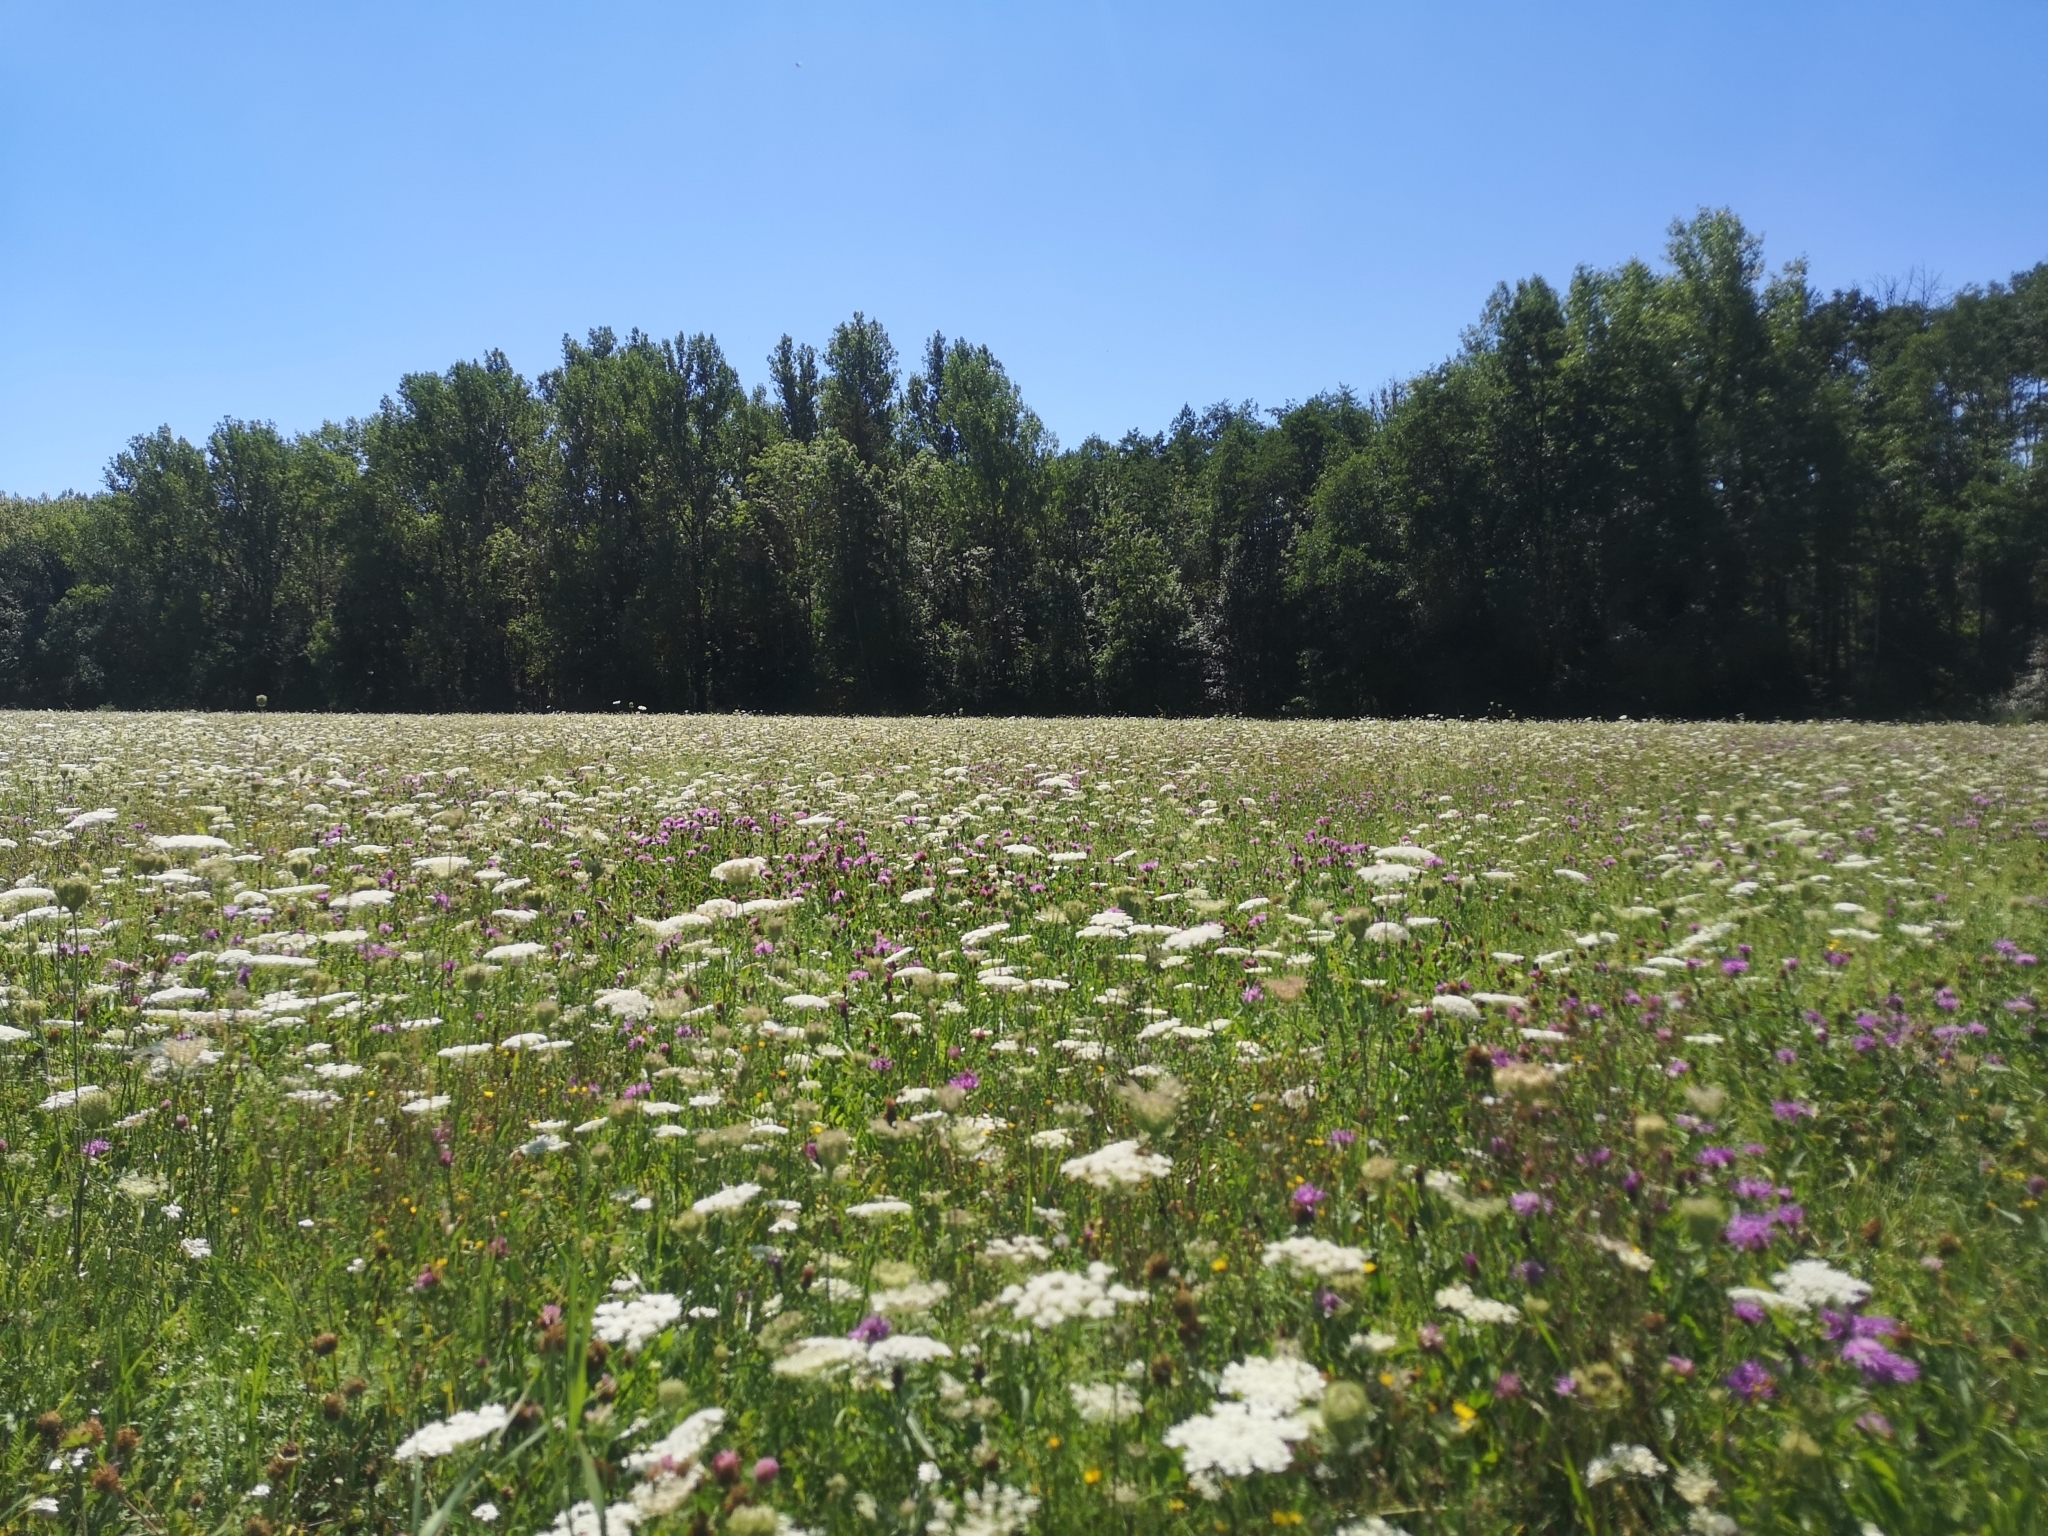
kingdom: Plantae
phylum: Tracheophyta
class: Magnoliopsida
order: Apiales
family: Apiaceae
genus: Daucus
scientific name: Daucus carota
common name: Wild carrot
